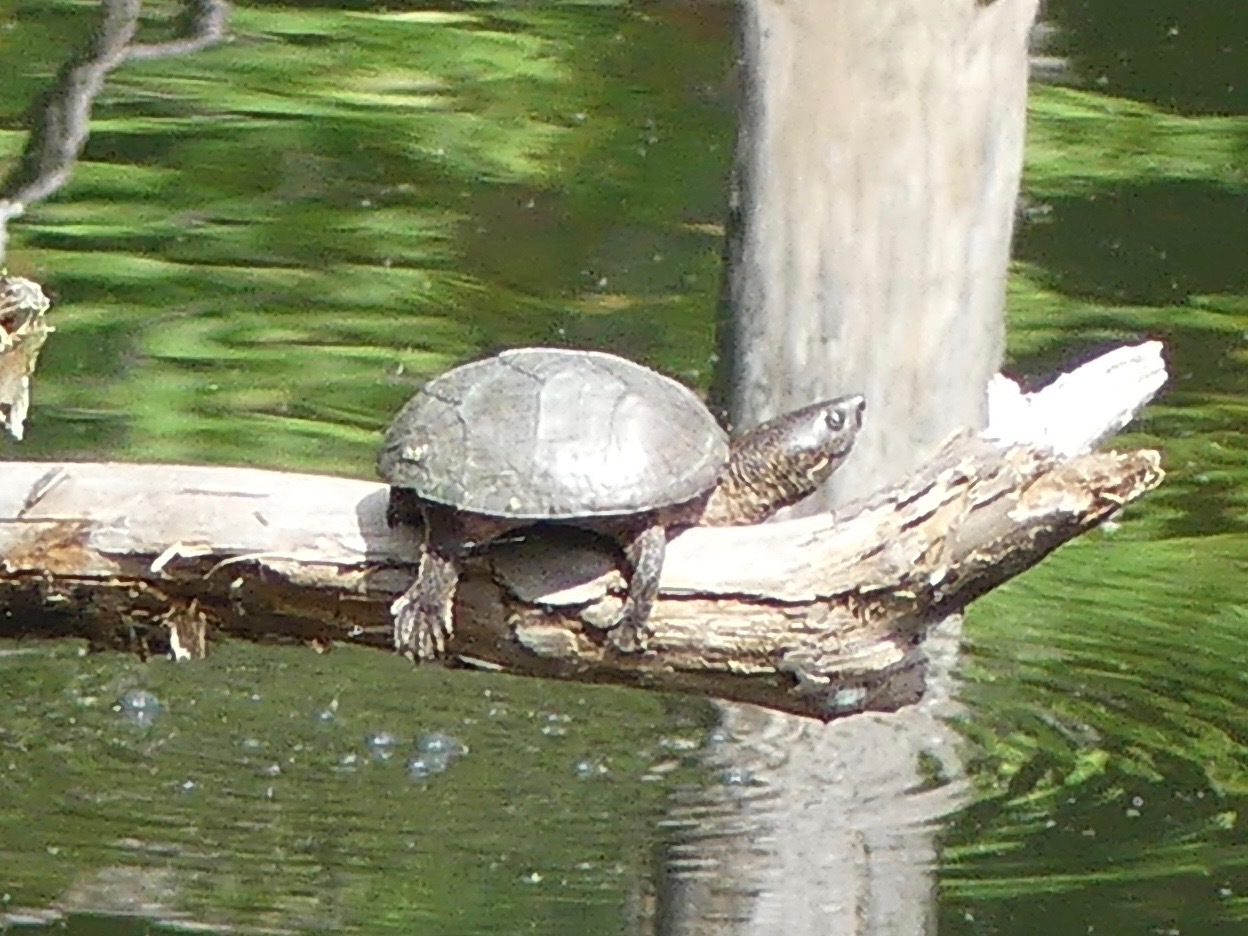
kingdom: Animalia
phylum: Chordata
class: Testudines
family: Kinosternidae
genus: Sternotherus
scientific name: Sternotherus carinatus
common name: Razor-backed musk turtle
